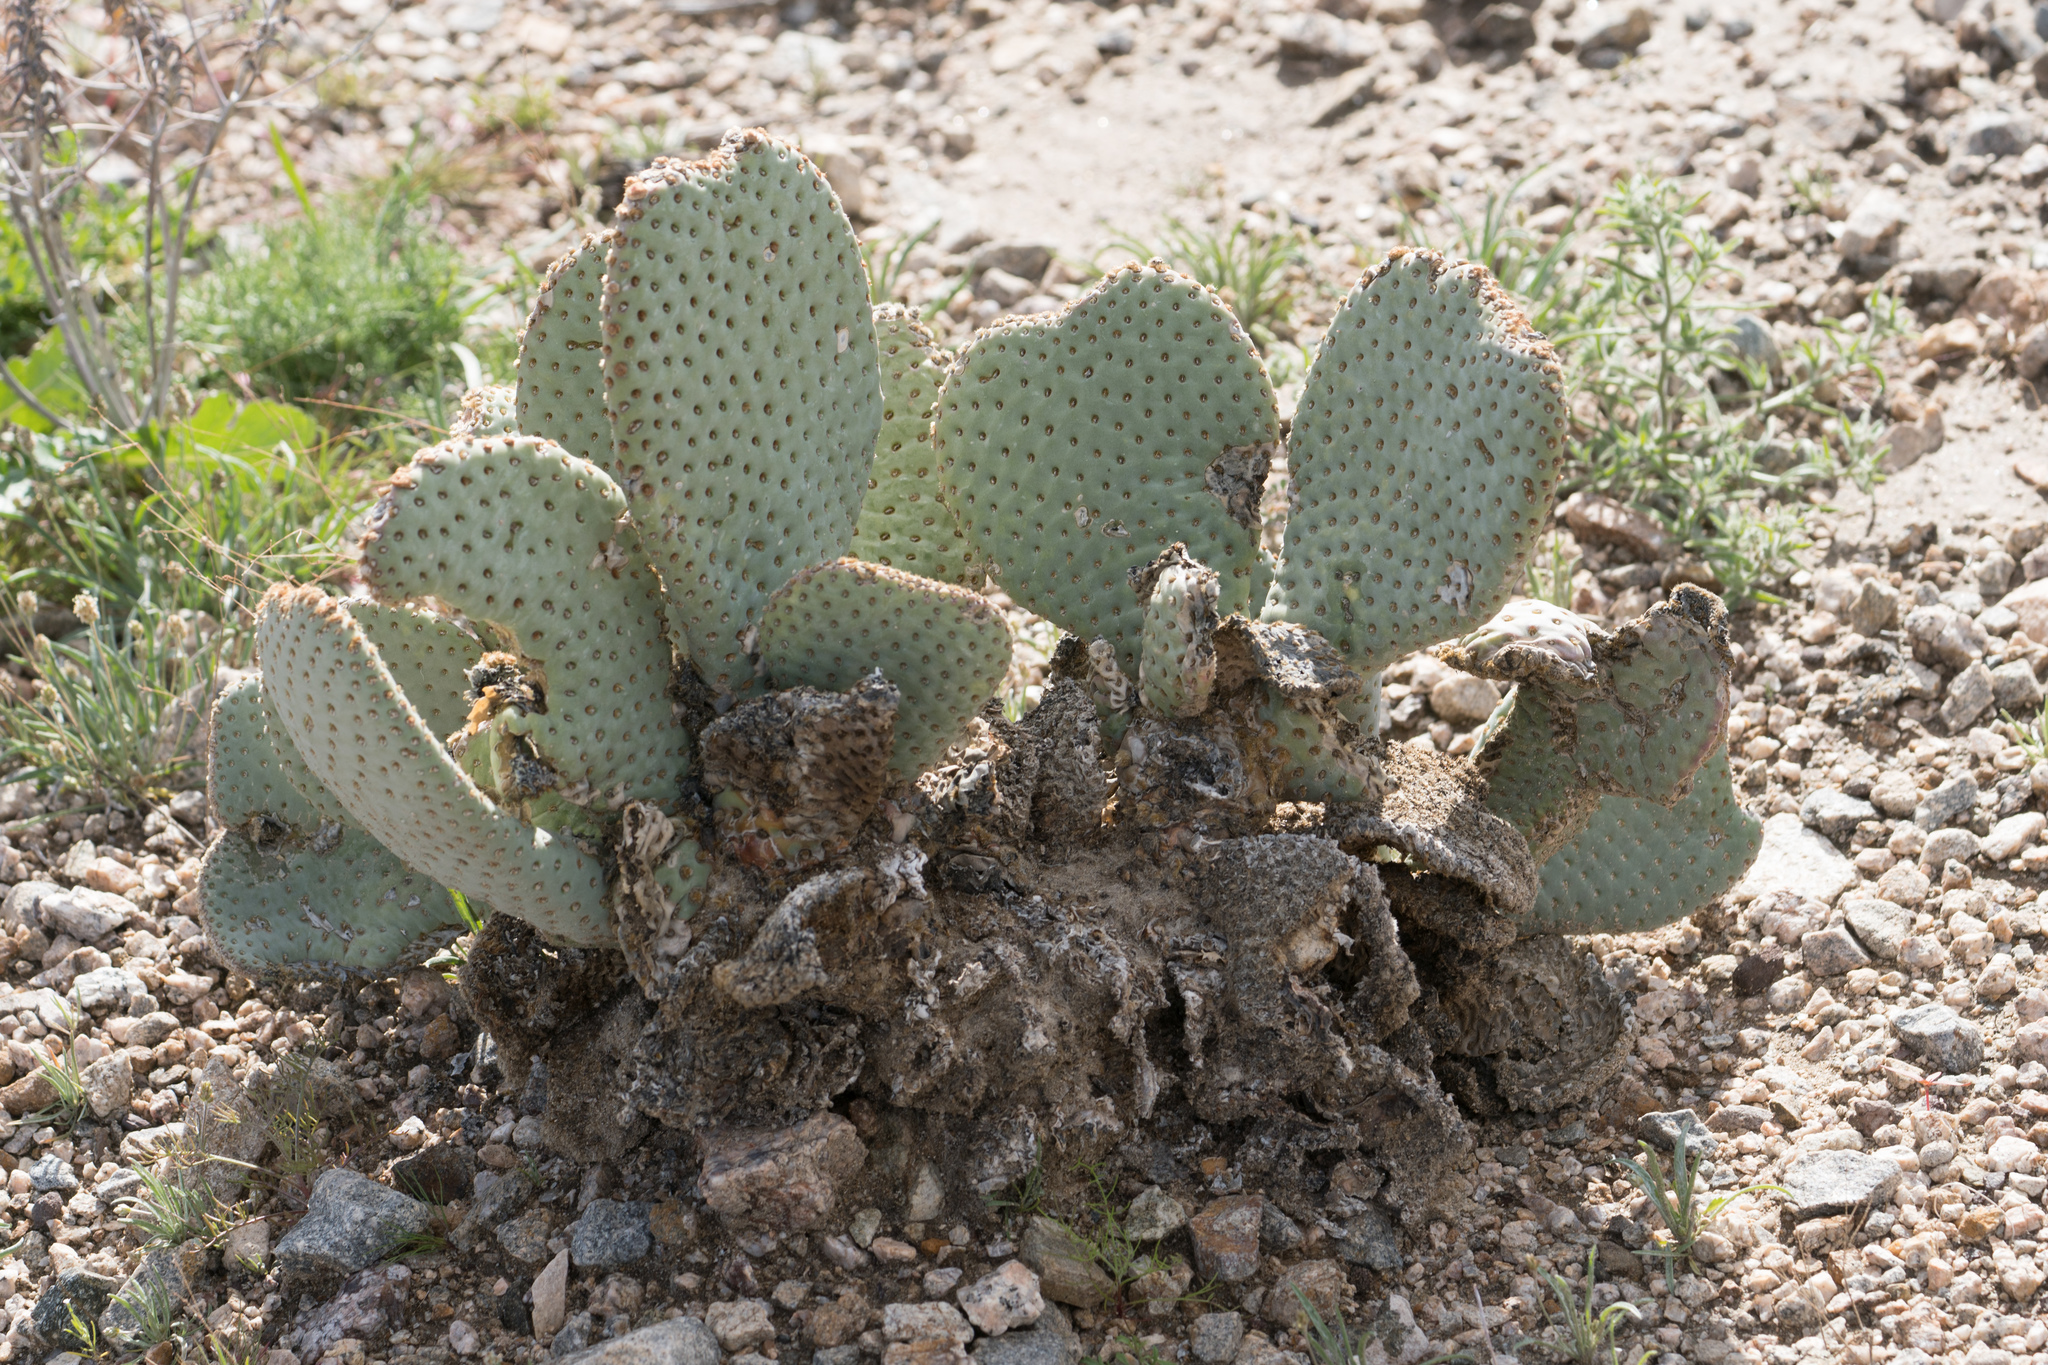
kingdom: Plantae
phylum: Tracheophyta
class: Magnoliopsida
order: Caryophyllales
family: Cactaceae
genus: Opuntia
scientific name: Opuntia basilaris
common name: Beavertail prickly-pear
